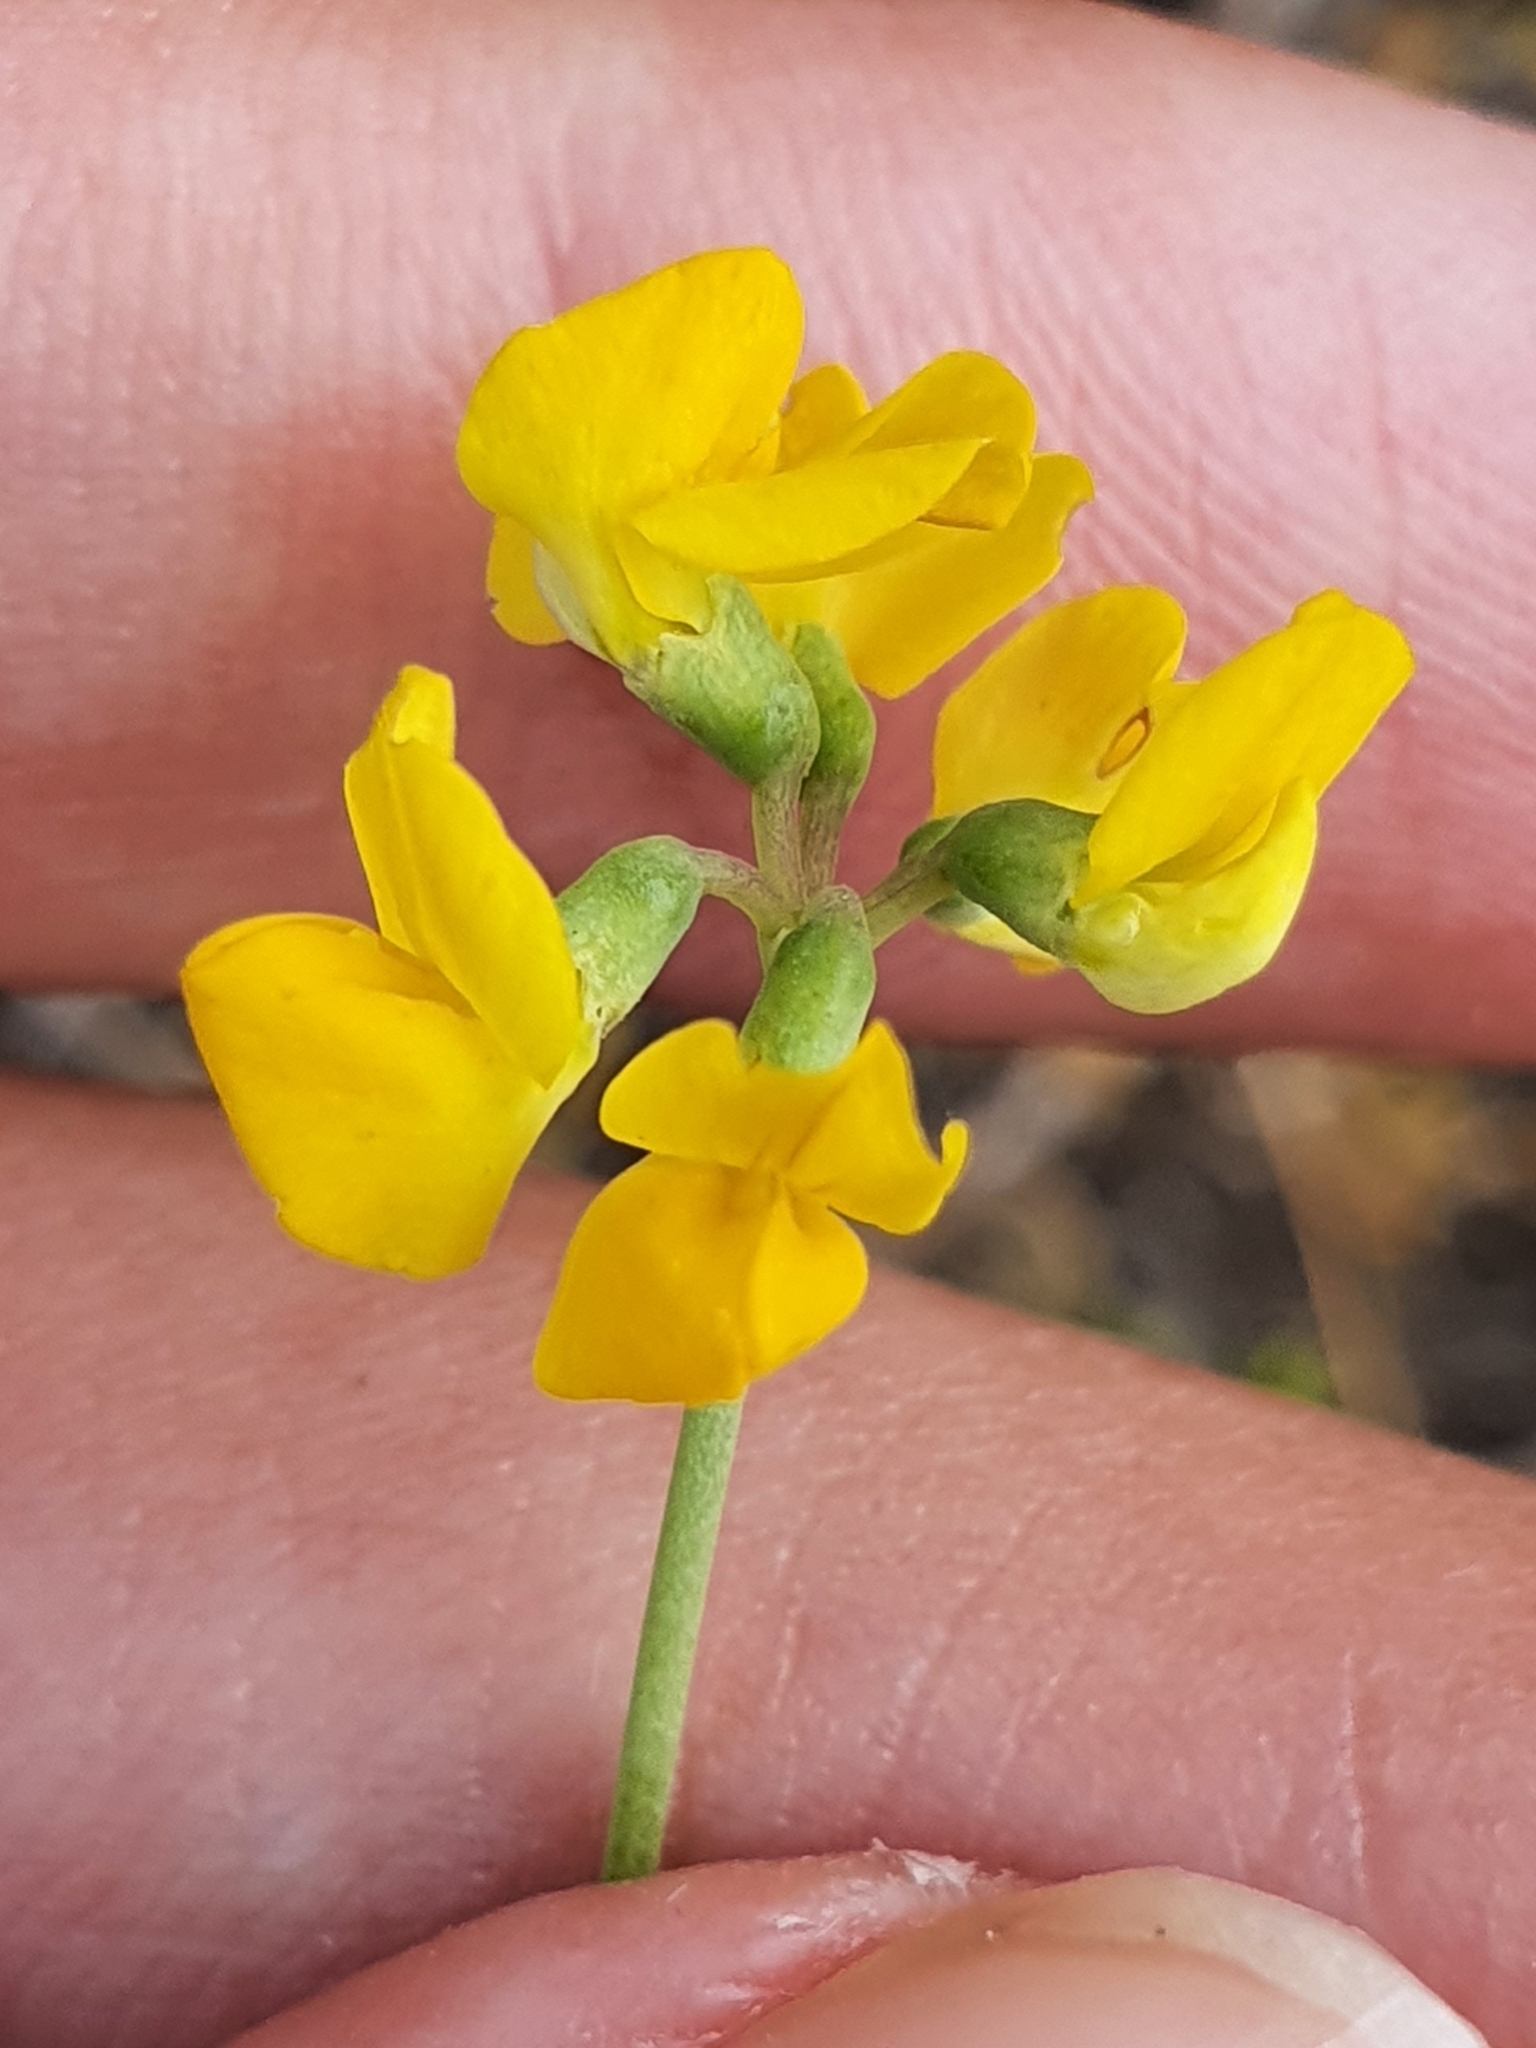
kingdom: Plantae
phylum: Tracheophyta
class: Magnoliopsida
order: Fabales
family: Fabaceae
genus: Coronilla
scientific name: Coronilla minima
